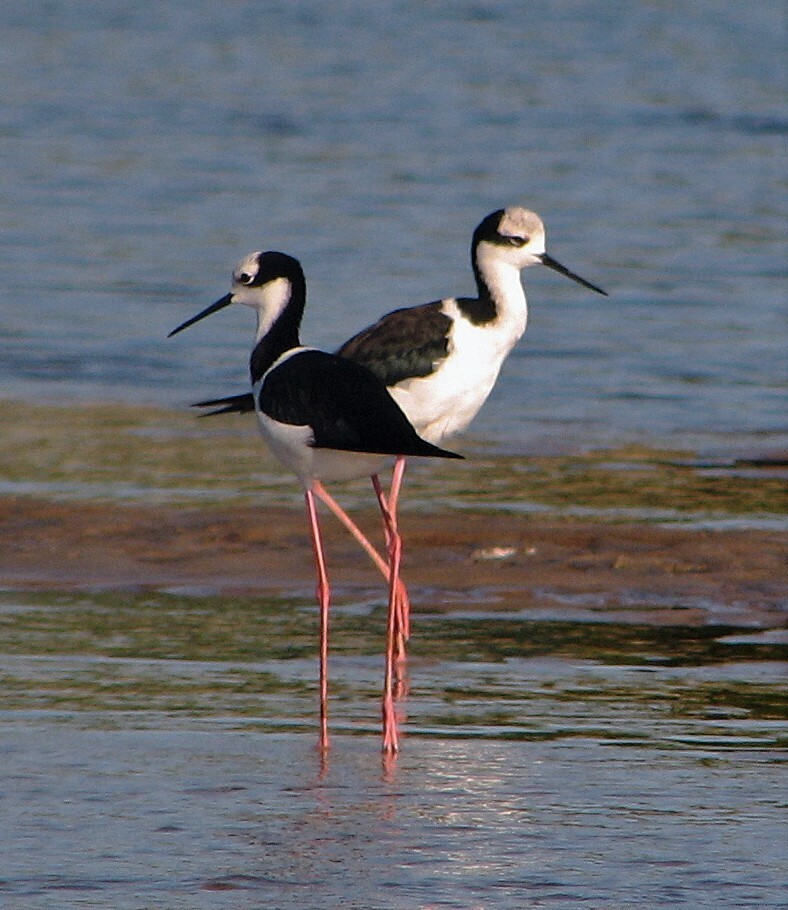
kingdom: Animalia
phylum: Chordata
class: Aves
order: Charadriiformes
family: Recurvirostridae
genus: Himantopus
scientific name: Himantopus mexicanus
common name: Black-necked stilt
